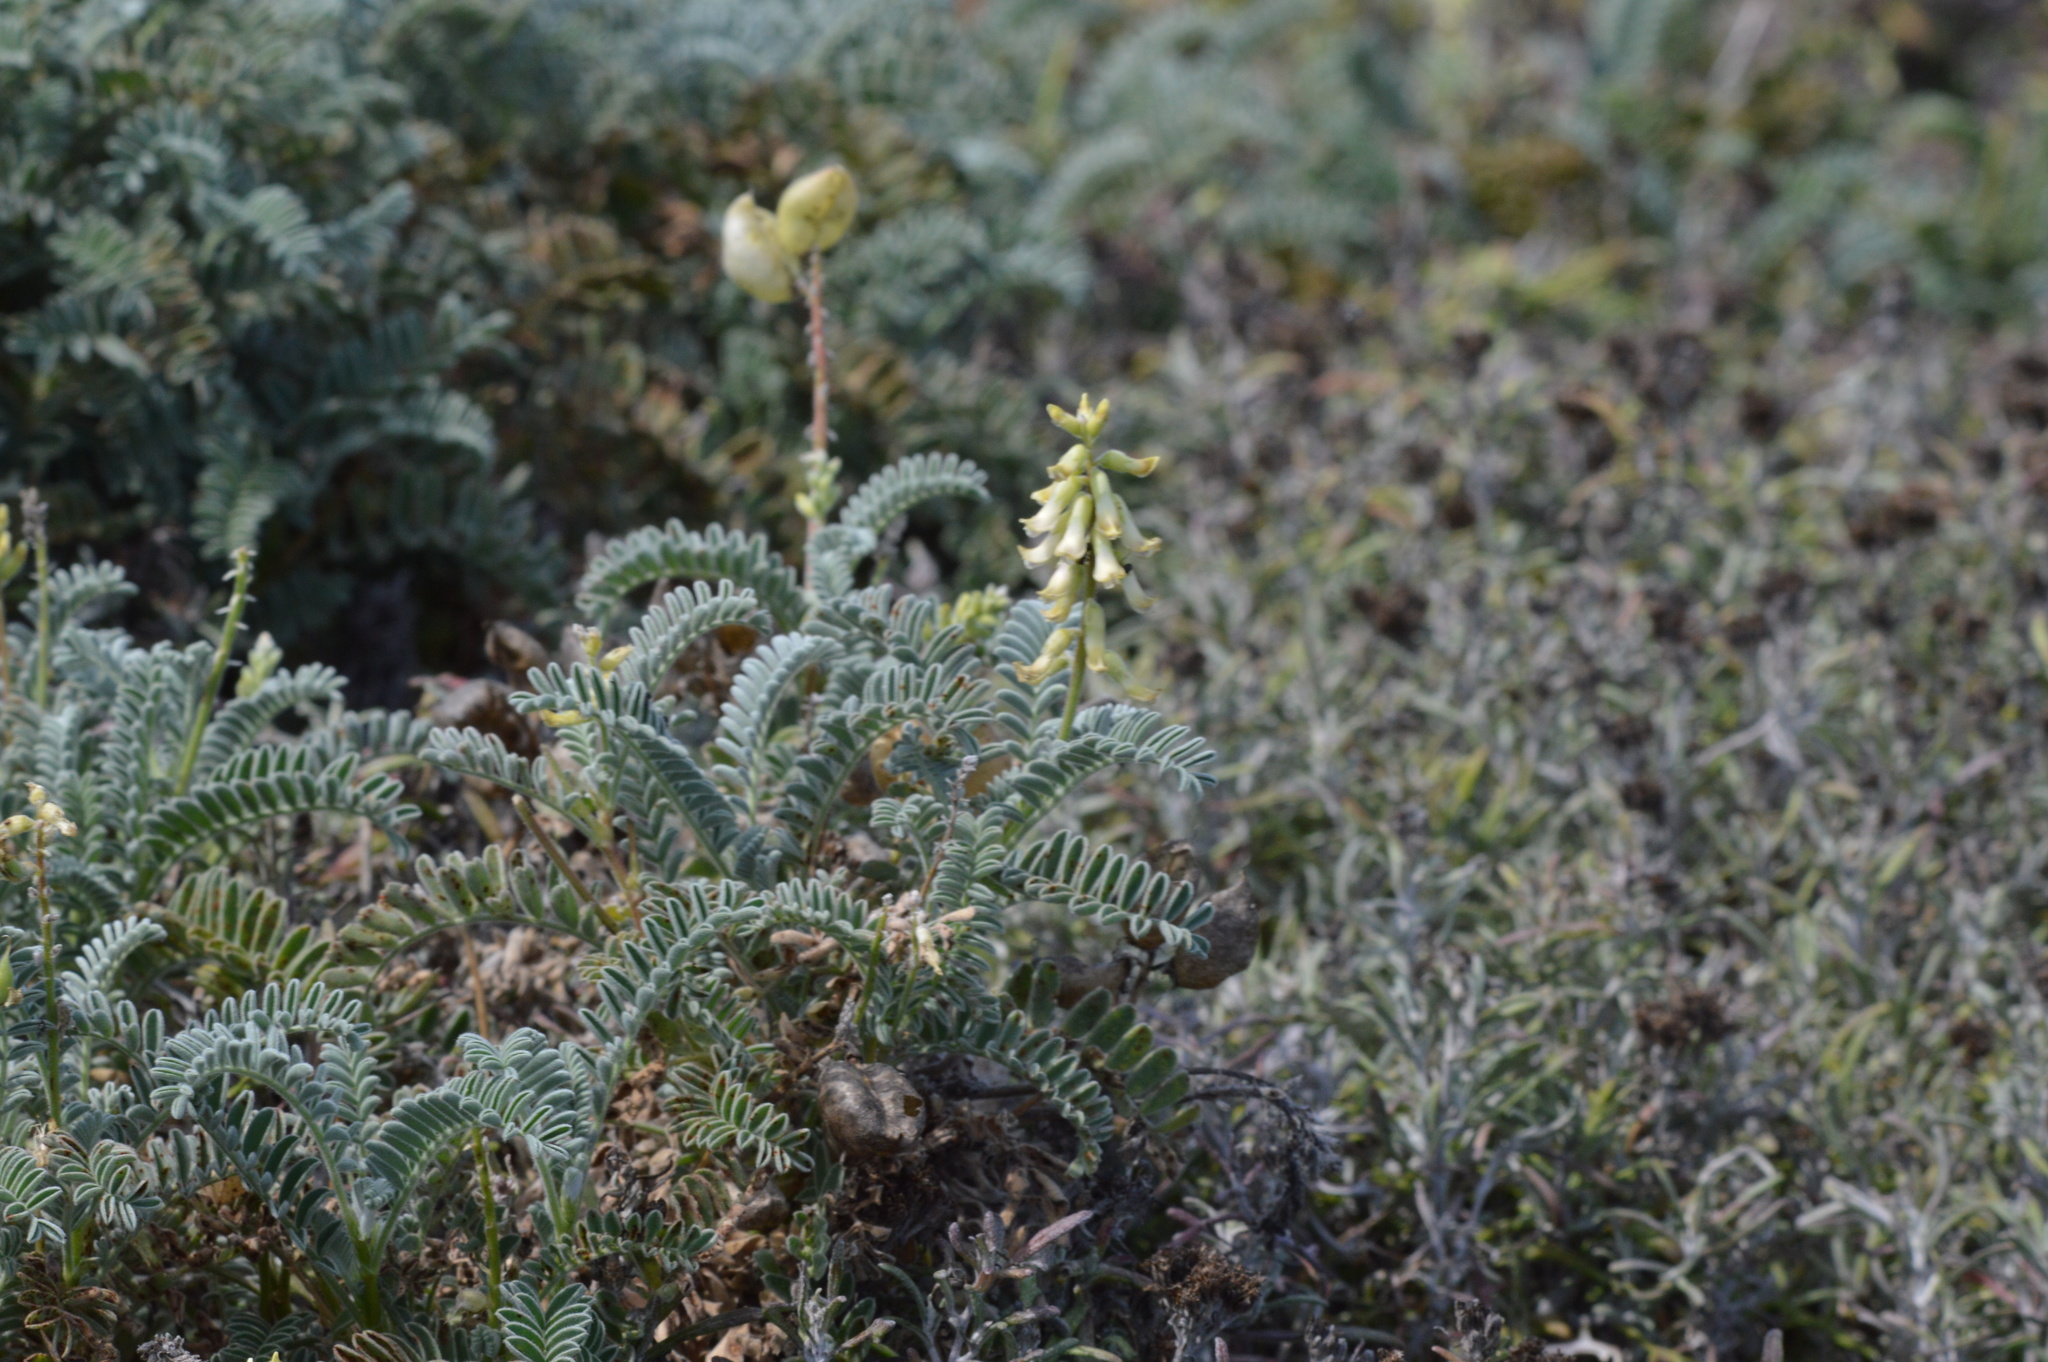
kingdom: Plantae
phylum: Tracheophyta
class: Magnoliopsida
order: Fabales
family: Fabaceae
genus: Astragalus
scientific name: Astragalus nuttallii
